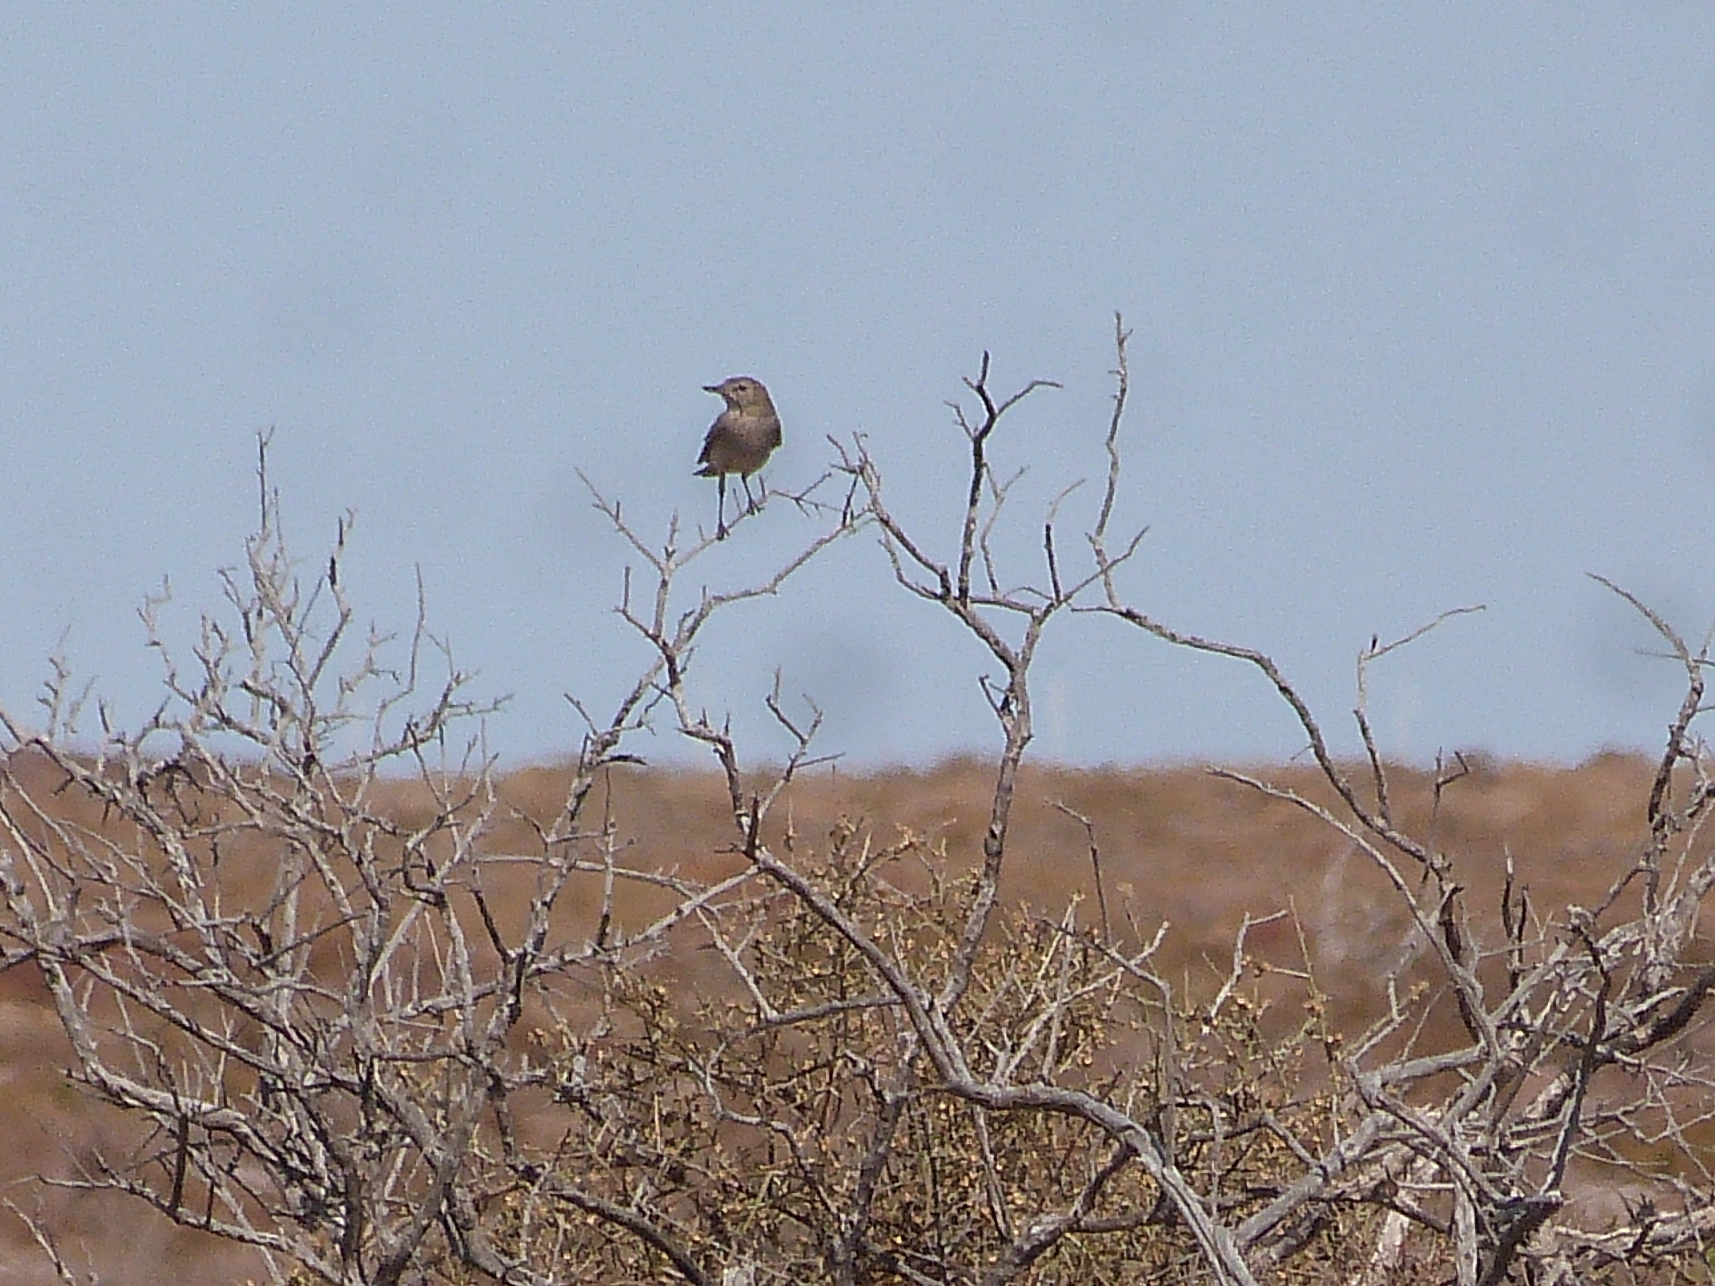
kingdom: Animalia
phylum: Chordata
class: Aves
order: Passeriformes
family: Tyrannidae
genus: Agriornis
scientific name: Agriornis murinus
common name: Lesser shrike-tyrant
